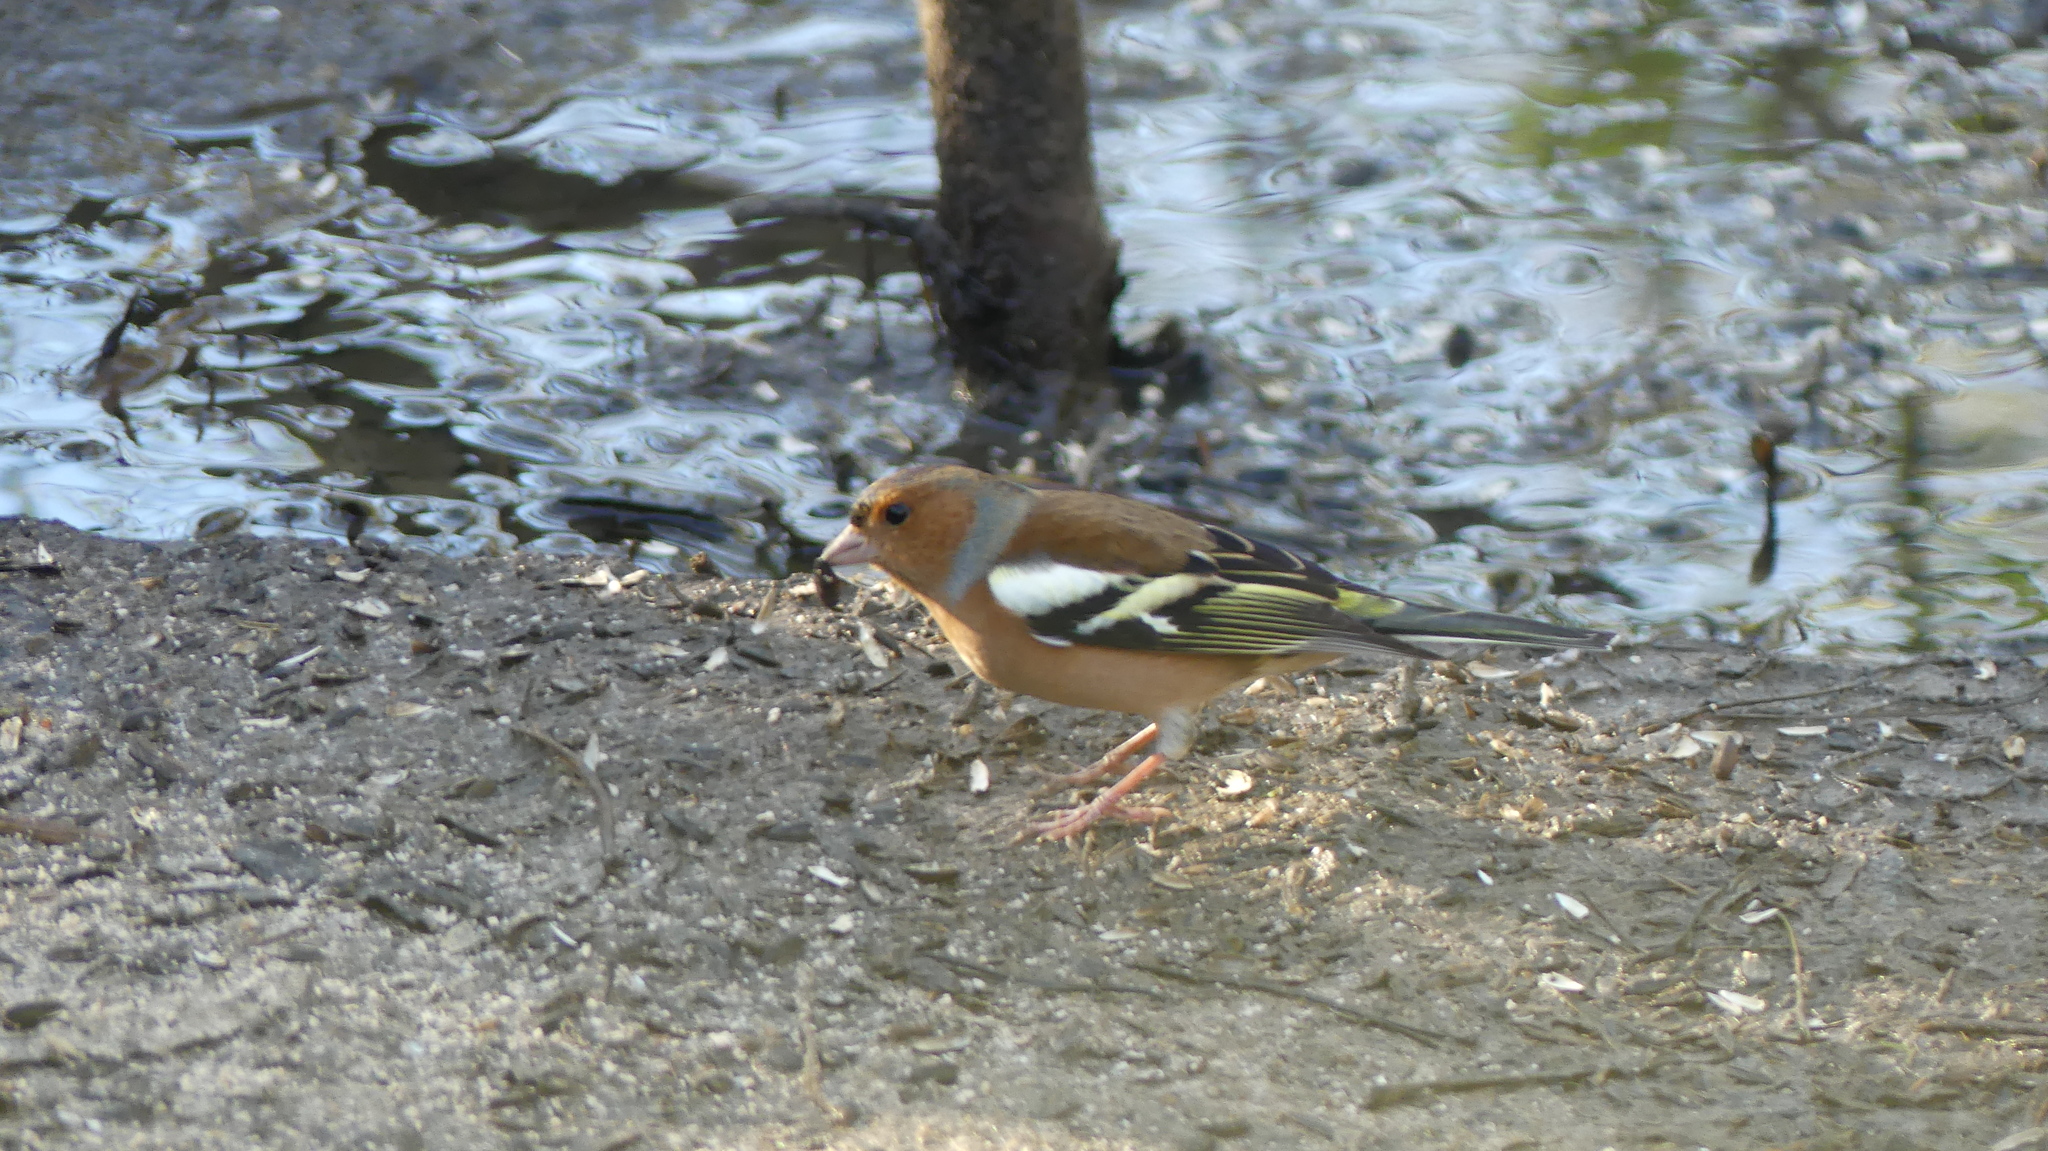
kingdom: Animalia
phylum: Chordata
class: Aves
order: Passeriformes
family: Fringillidae
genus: Fringilla
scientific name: Fringilla coelebs
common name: Common chaffinch
